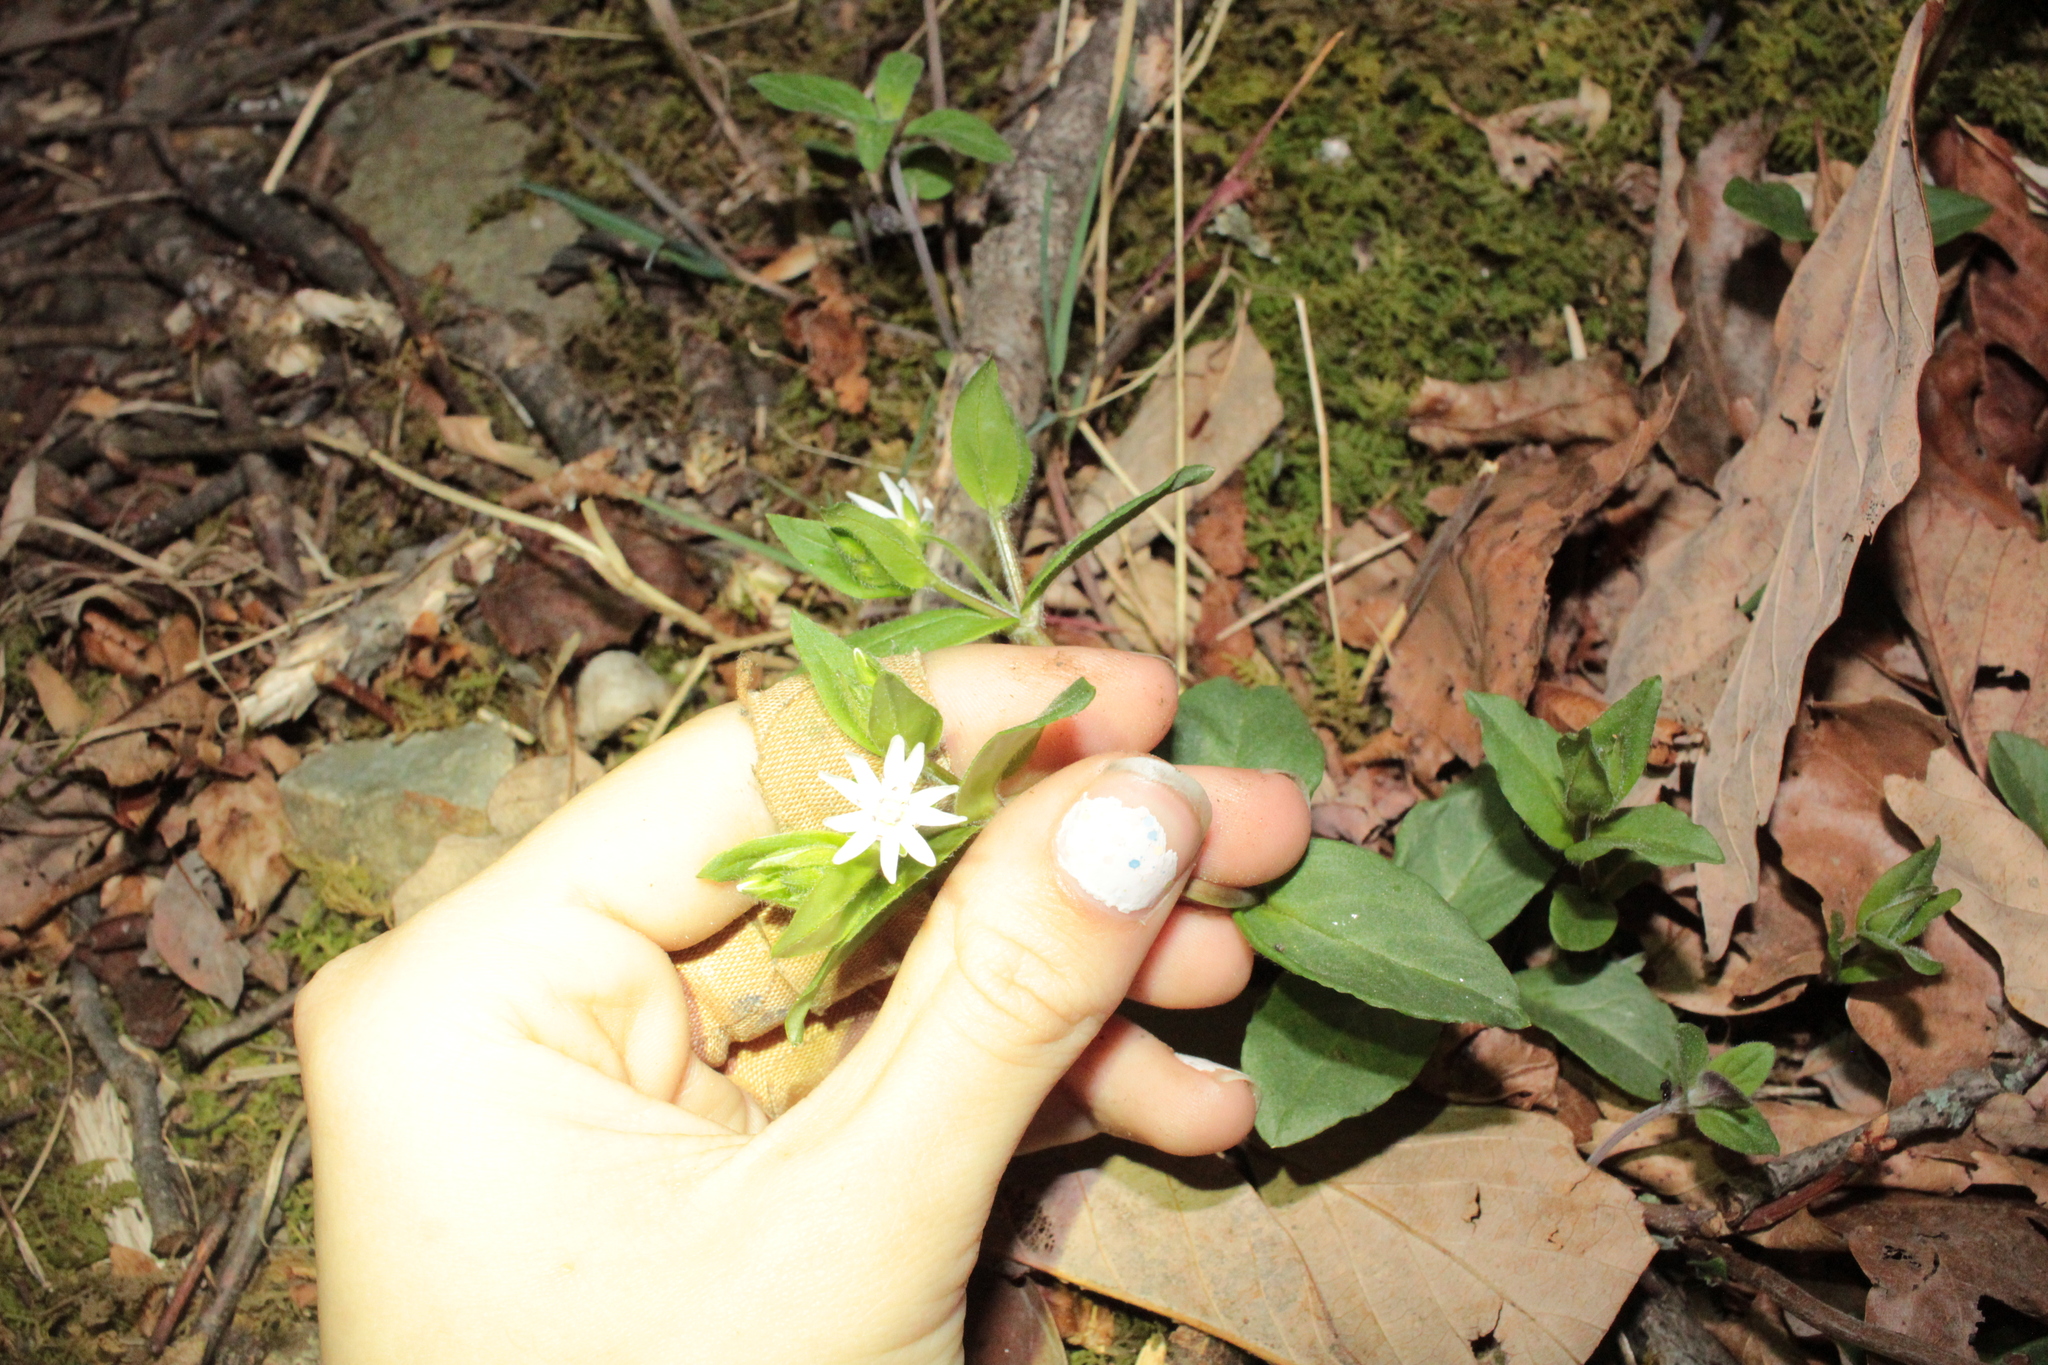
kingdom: Plantae
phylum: Tracheophyta
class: Magnoliopsida
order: Caryophyllales
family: Caryophyllaceae
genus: Stellaria
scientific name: Stellaria pubera
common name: Star chickweed
